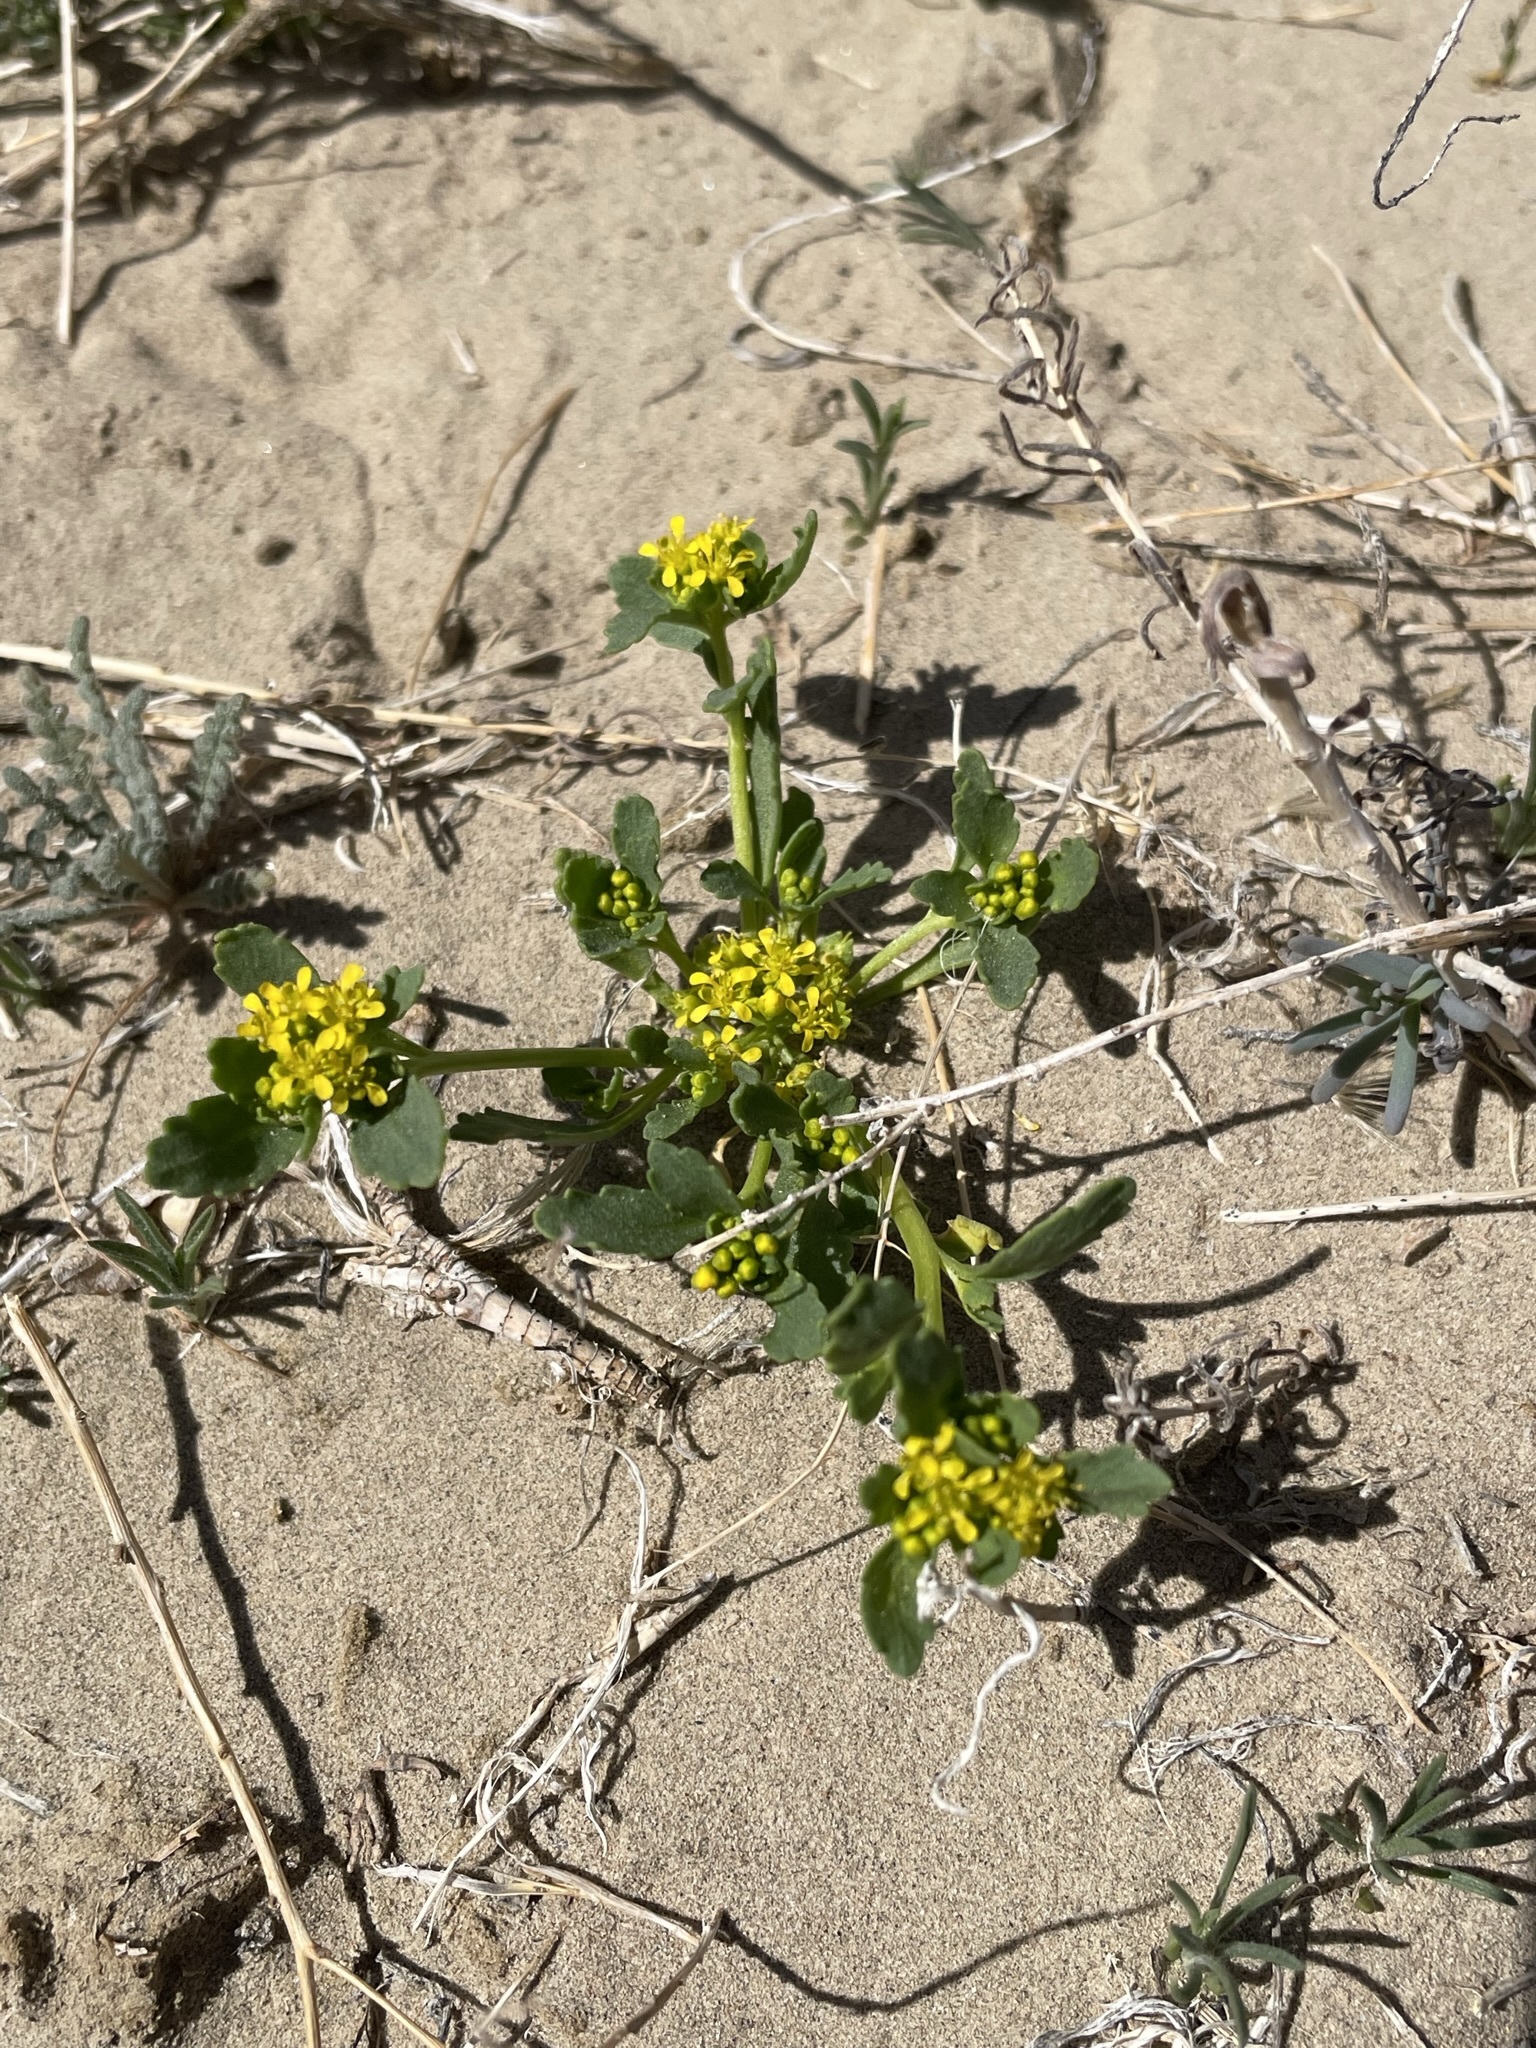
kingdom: Plantae
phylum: Tracheophyta
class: Magnoliopsida
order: Brassicales
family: Brassicaceae
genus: Lepidium
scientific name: Lepidium flavum
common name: Yellow pepperwort
